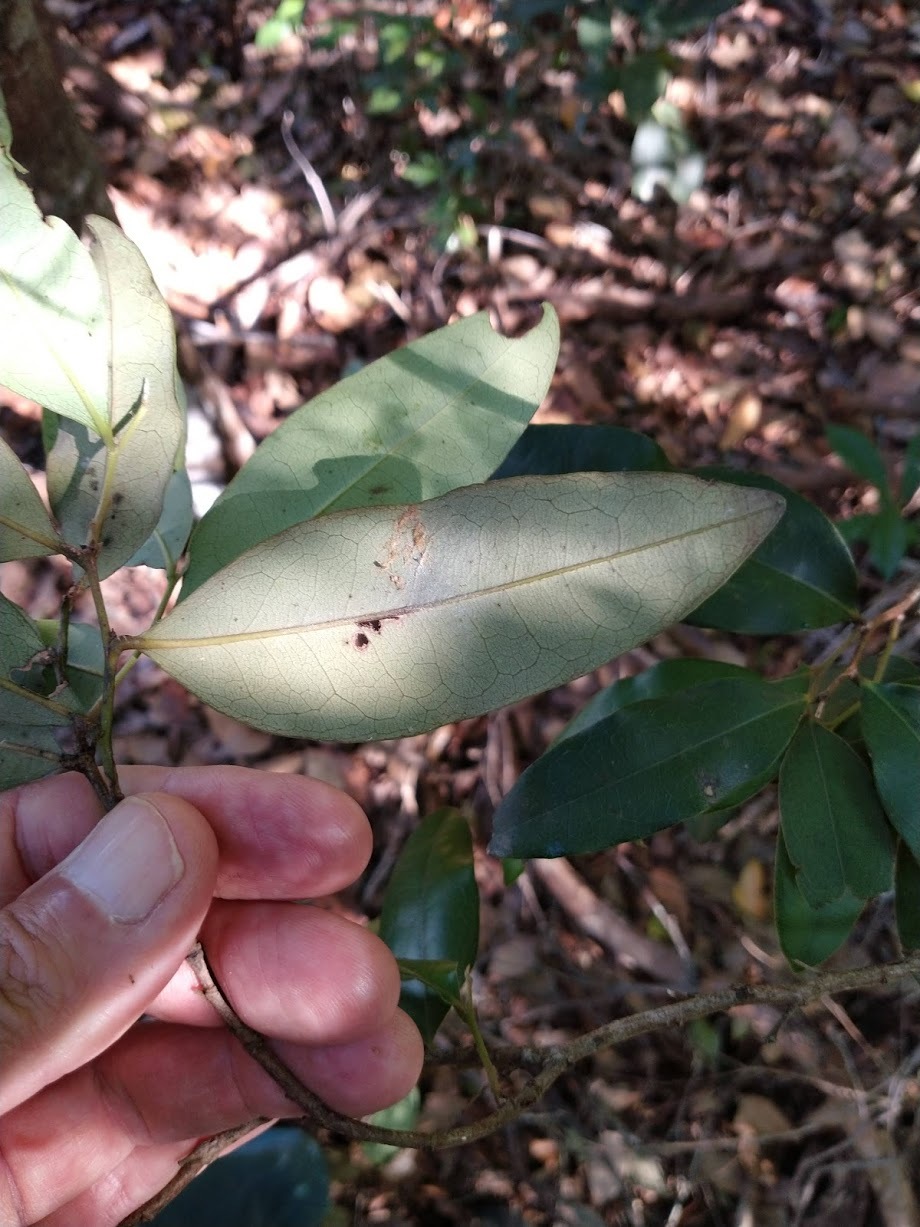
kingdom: Plantae
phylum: Tracheophyta
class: Magnoliopsida
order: Ericales
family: Ebenaceae
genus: Diospyros
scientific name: Diospyros pentamera
